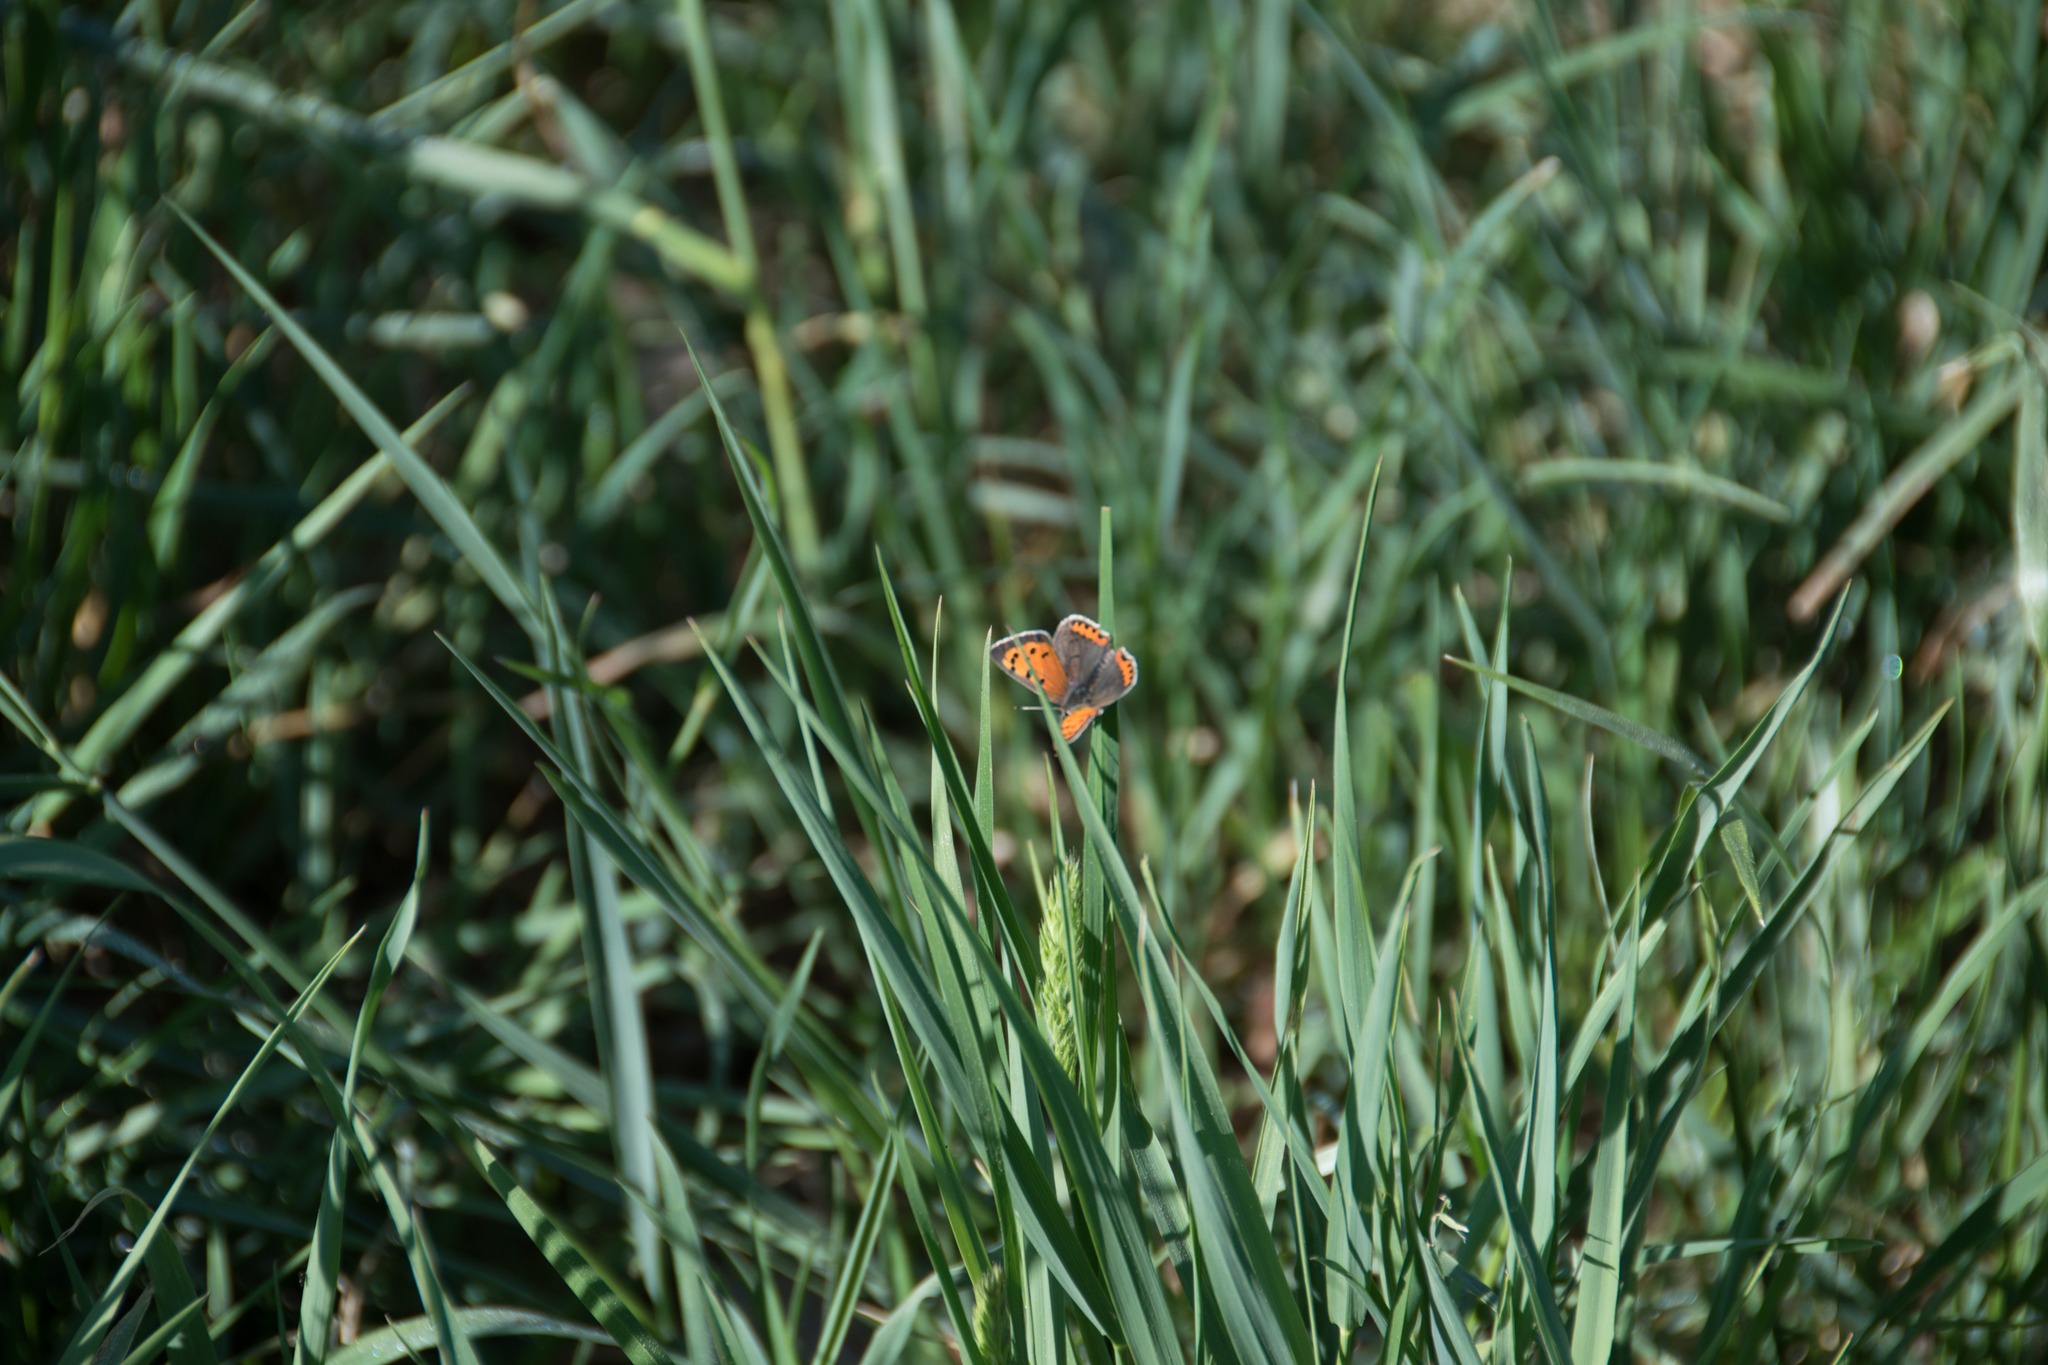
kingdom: Animalia
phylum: Arthropoda
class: Insecta
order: Lepidoptera
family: Lycaenidae
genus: Lycaena
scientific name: Lycaena phlaeas
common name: Small copper
